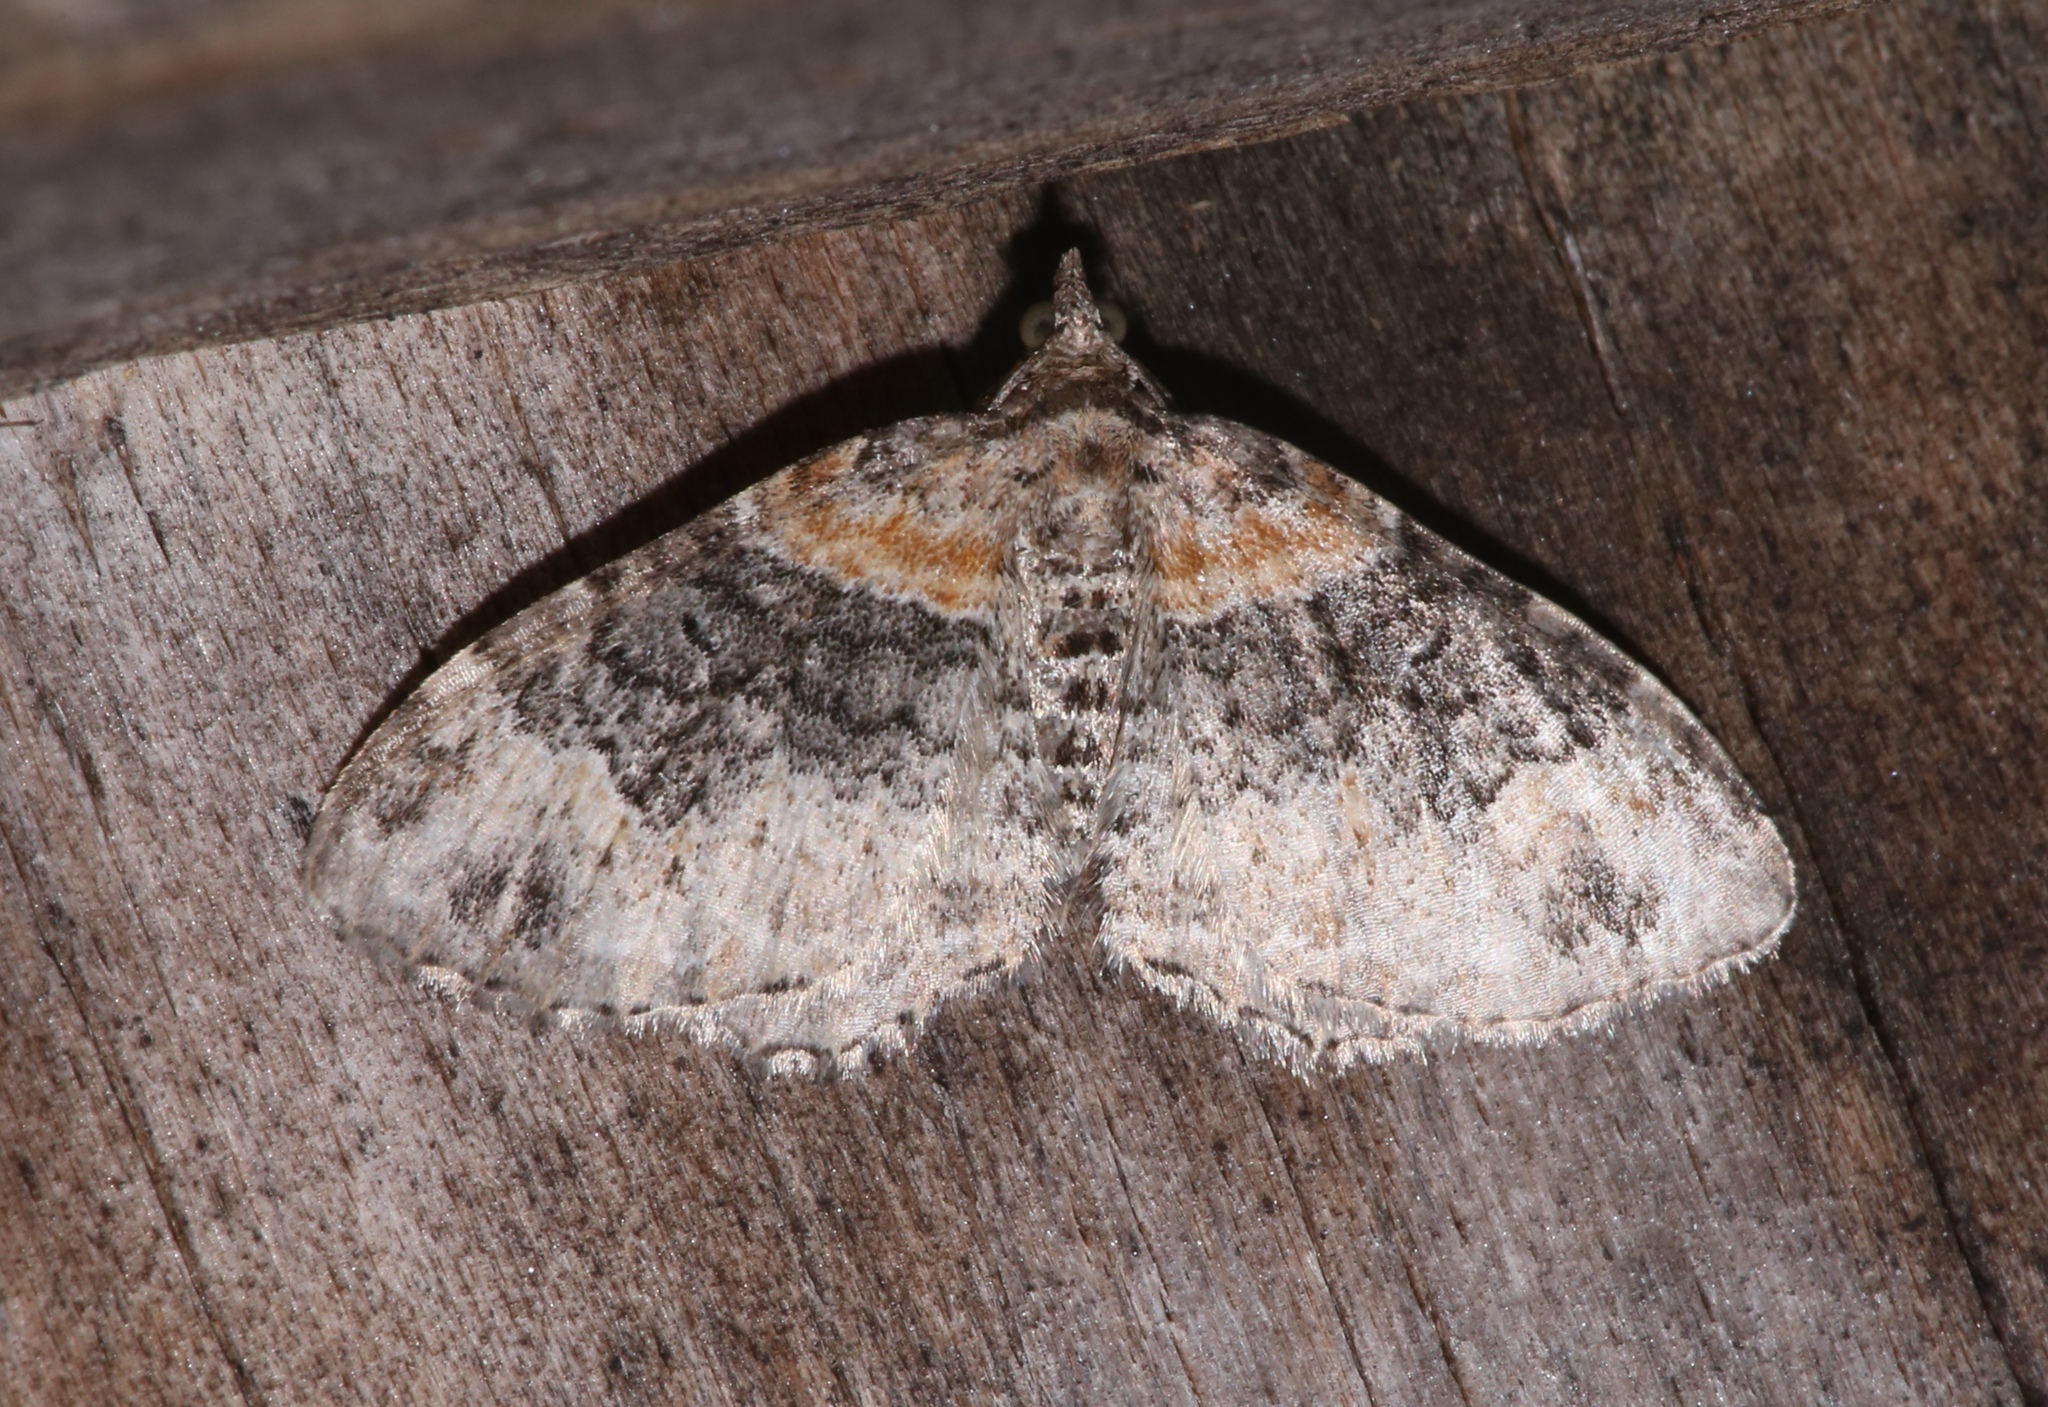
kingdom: Animalia
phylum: Arthropoda
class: Insecta
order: Lepidoptera
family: Geometridae
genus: Xanthorhoe
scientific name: Xanthorhoe ferrugata
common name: Dark-barred twin-spot carpet
